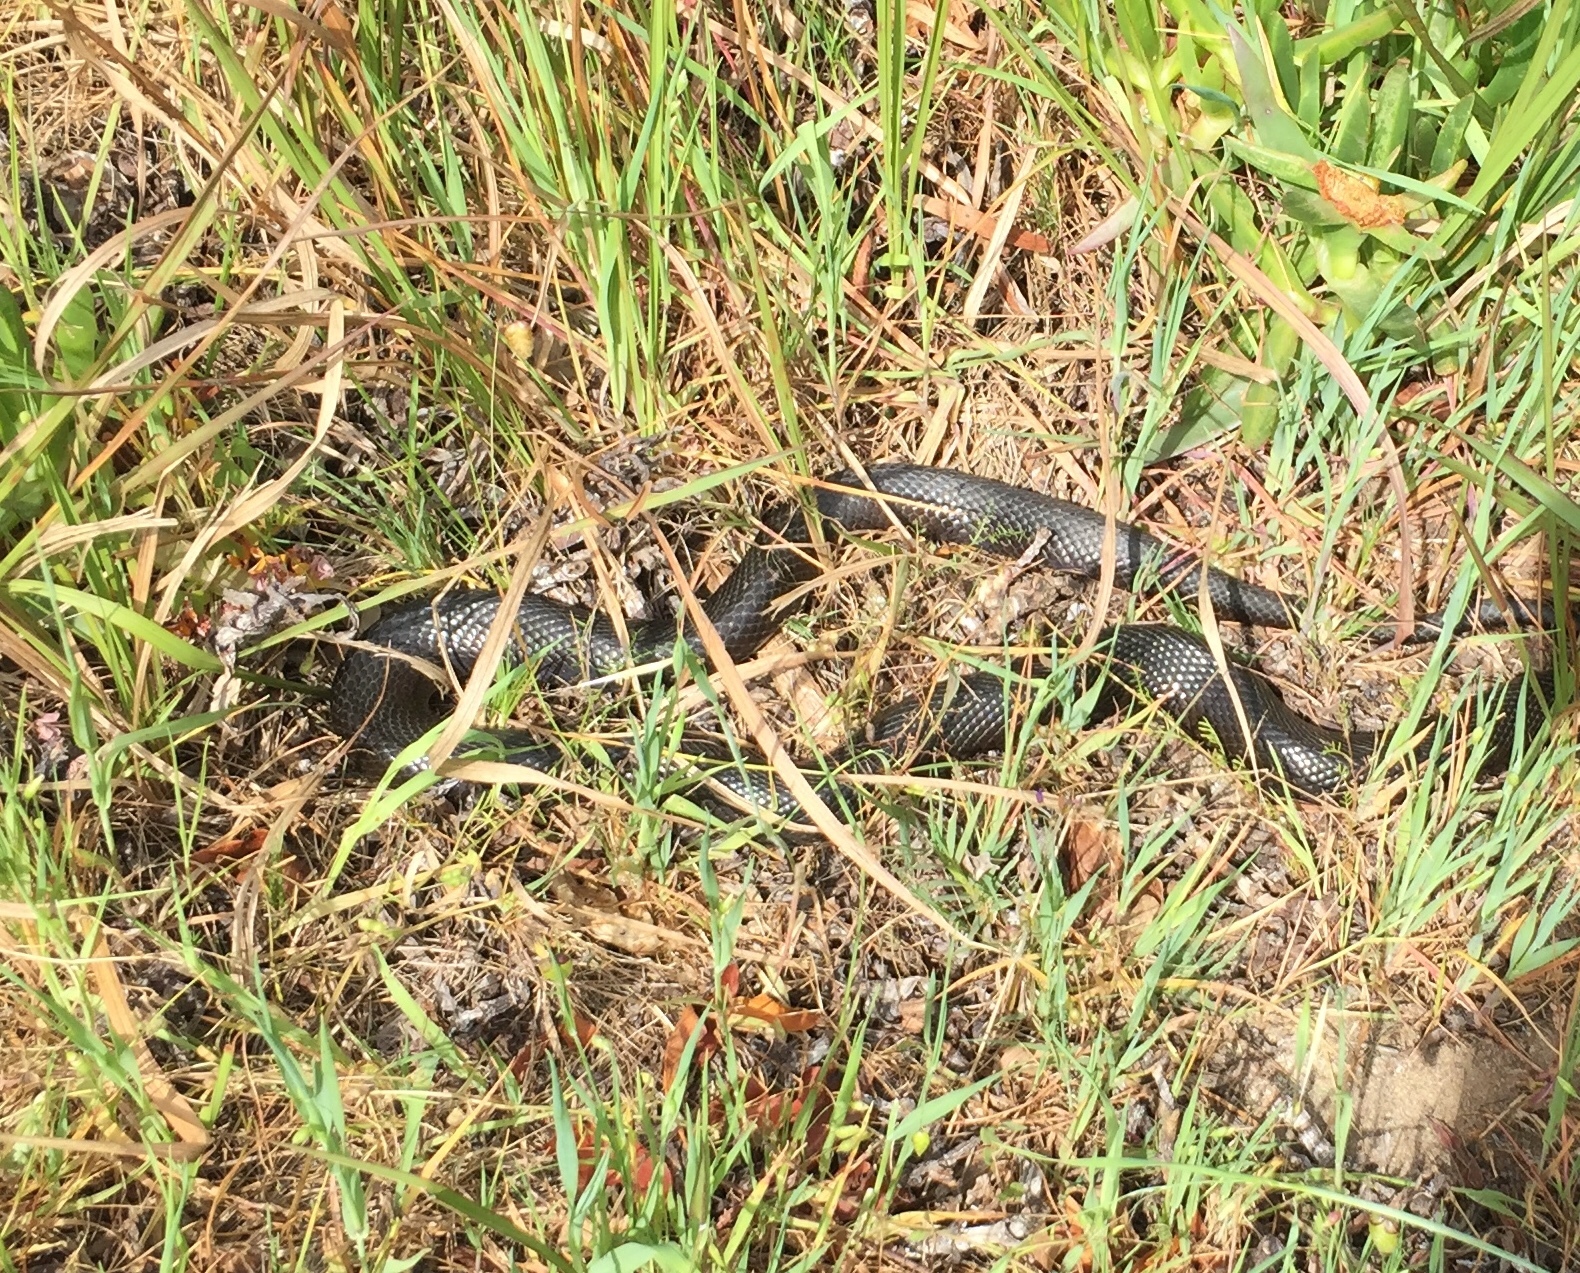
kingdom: Animalia
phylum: Chordata
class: Squamata
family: Pseudaspididae
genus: Pseudaspis
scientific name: Pseudaspis cana
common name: Mole snake
